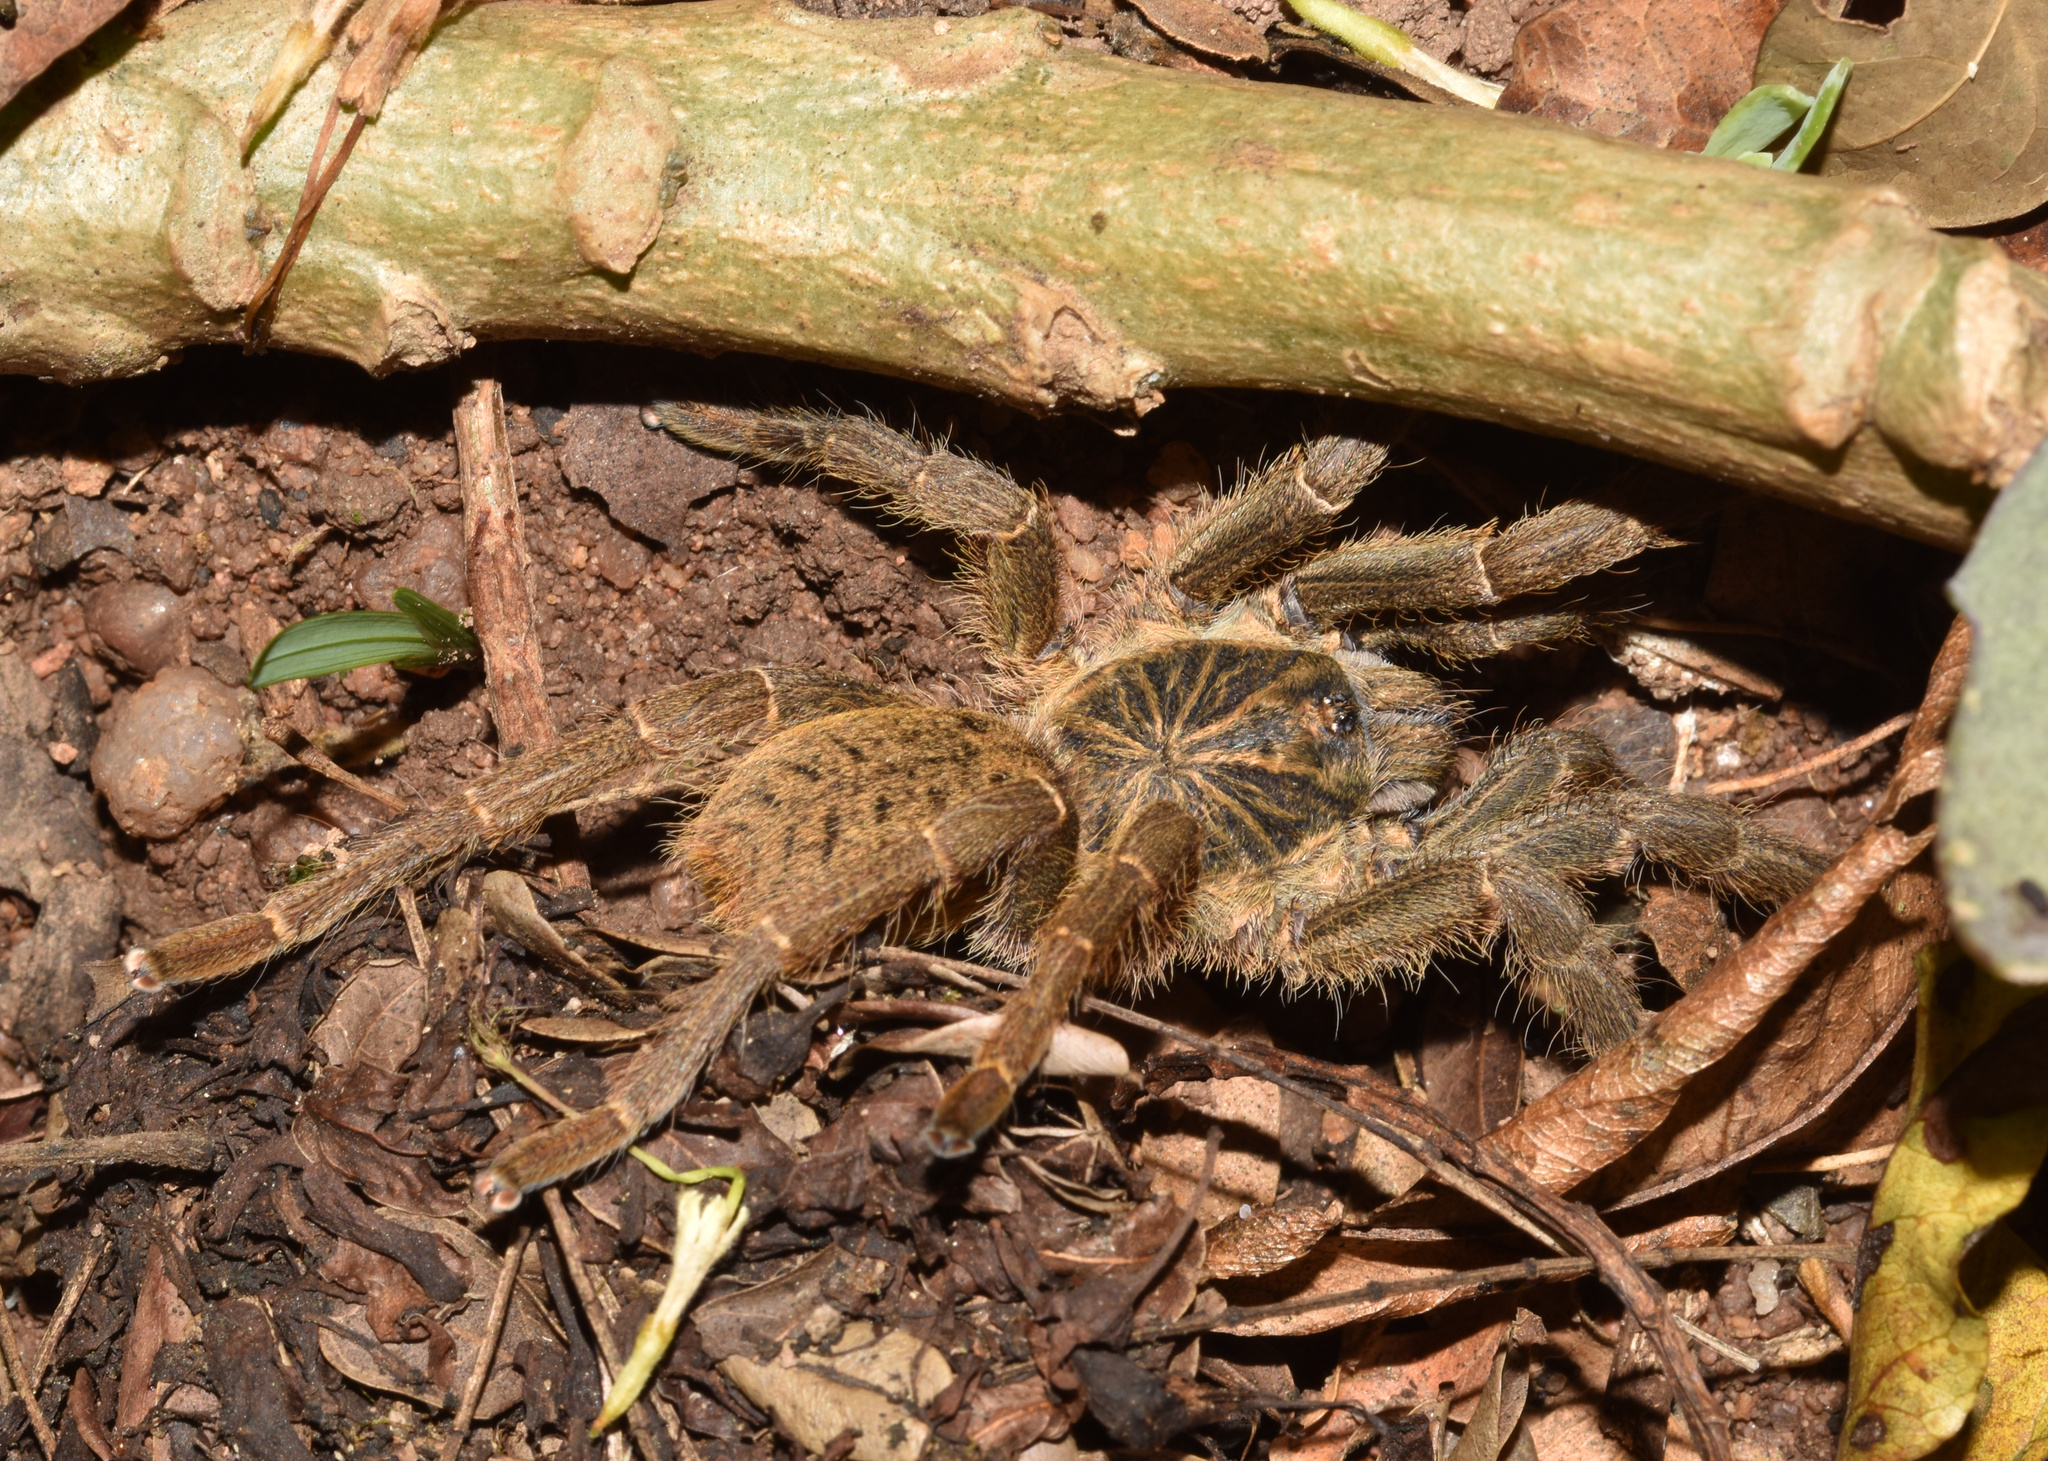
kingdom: Animalia
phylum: Arthropoda
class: Arachnida
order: Araneae
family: Theraphosidae
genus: Harpactira
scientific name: Harpactira curator
